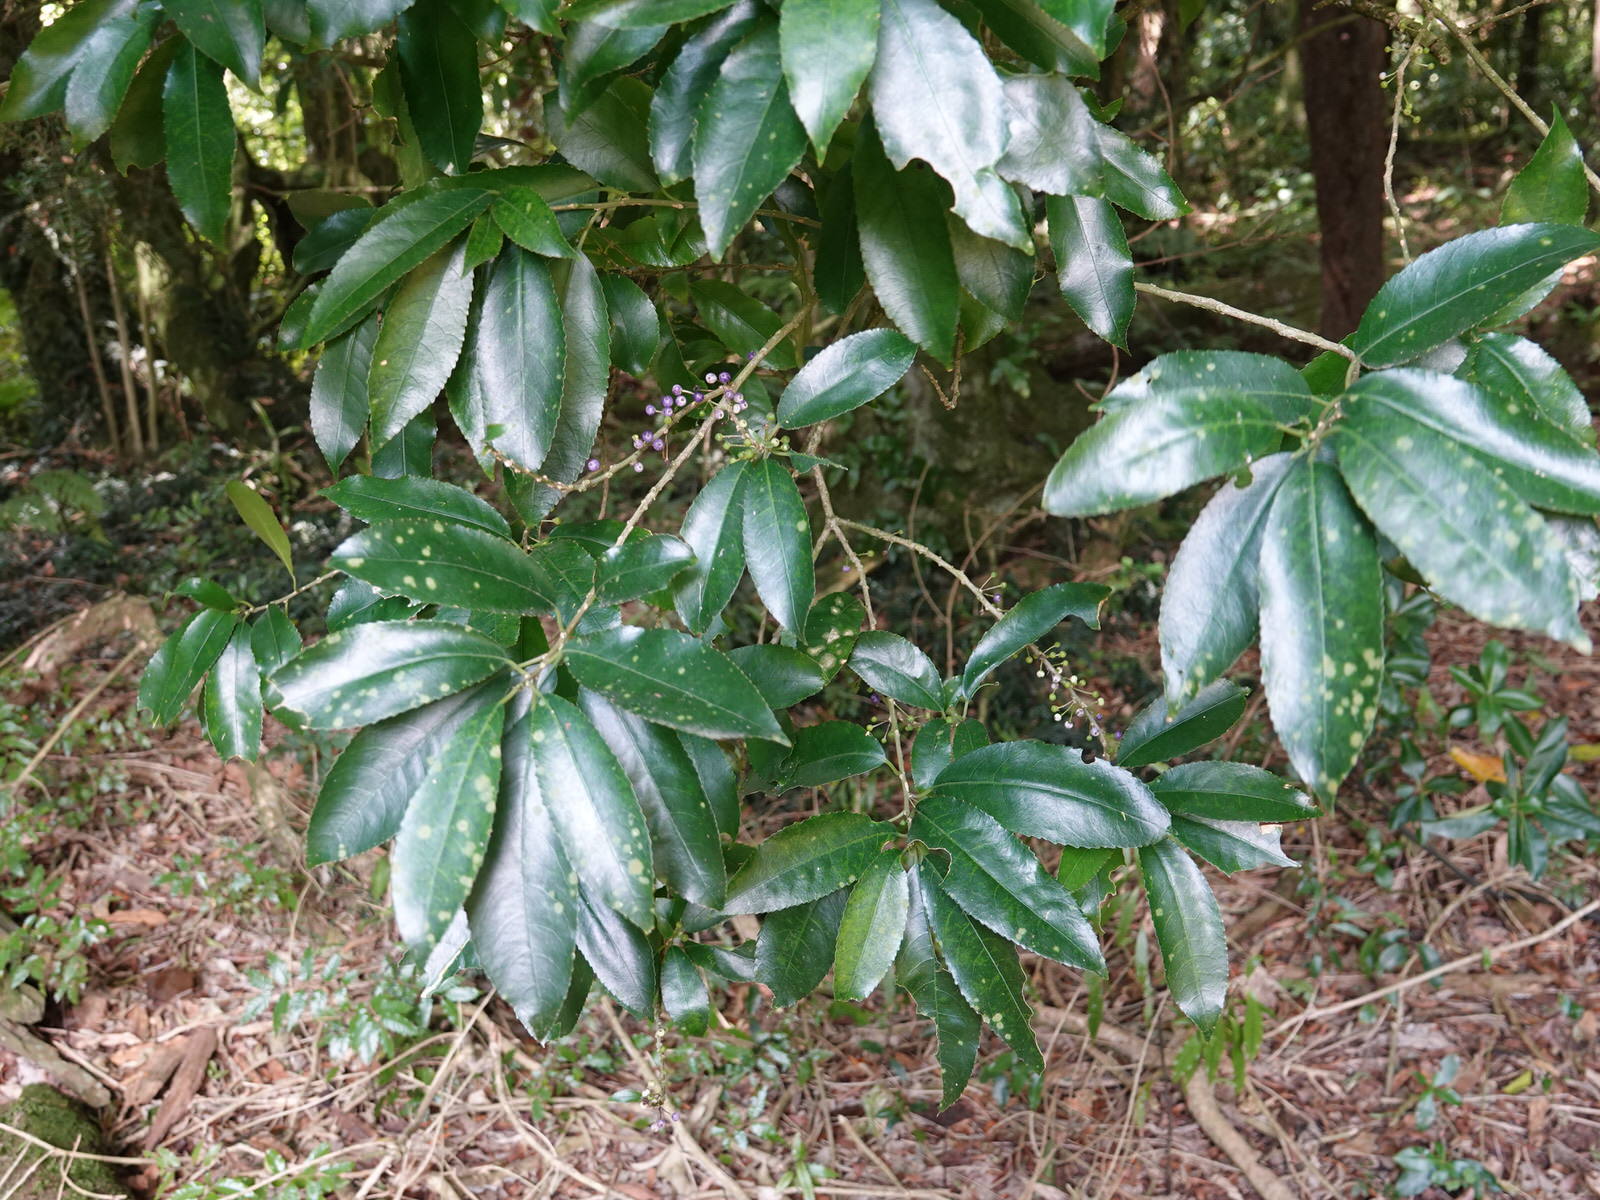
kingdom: Plantae
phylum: Tracheophyta
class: Magnoliopsida
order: Malpighiales
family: Violaceae
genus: Melicytus
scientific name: Melicytus ramiflorus
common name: Mahoe
